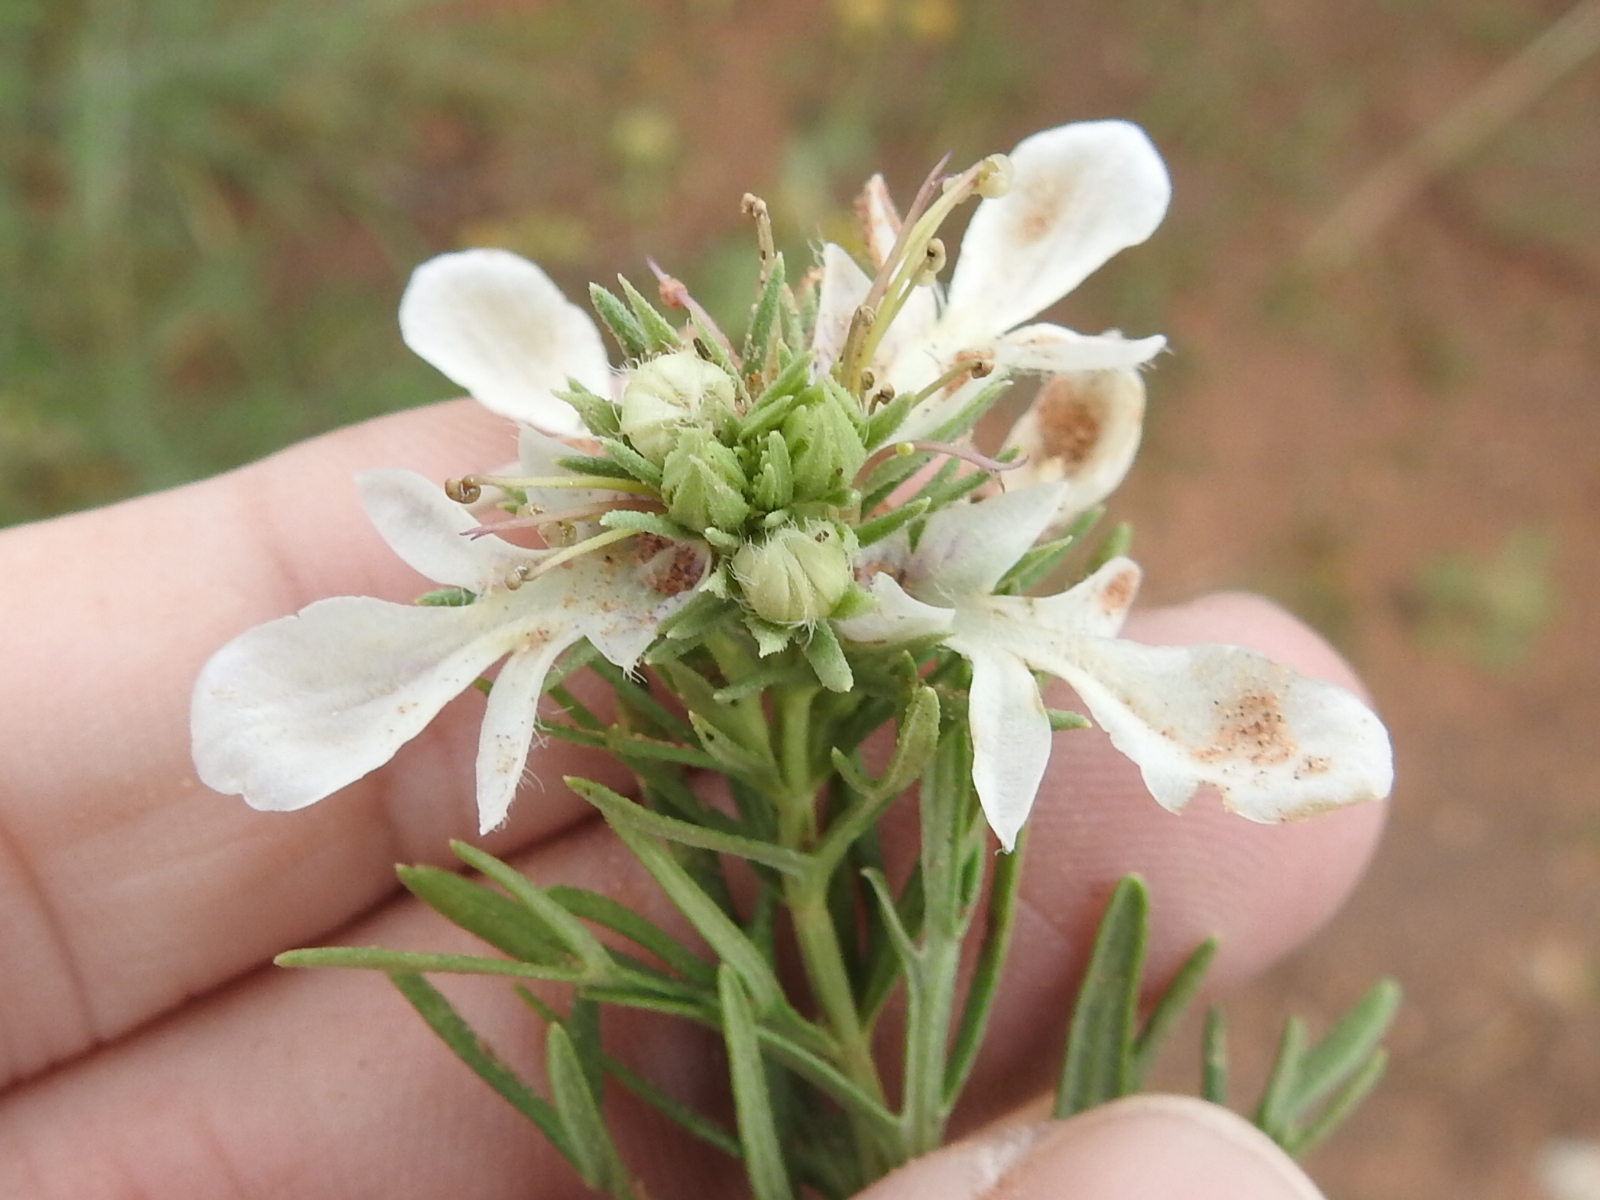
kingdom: Plantae
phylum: Tracheophyta
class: Magnoliopsida
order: Lamiales
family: Lamiaceae
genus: Teucrium
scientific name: Teucrium laciniatum
